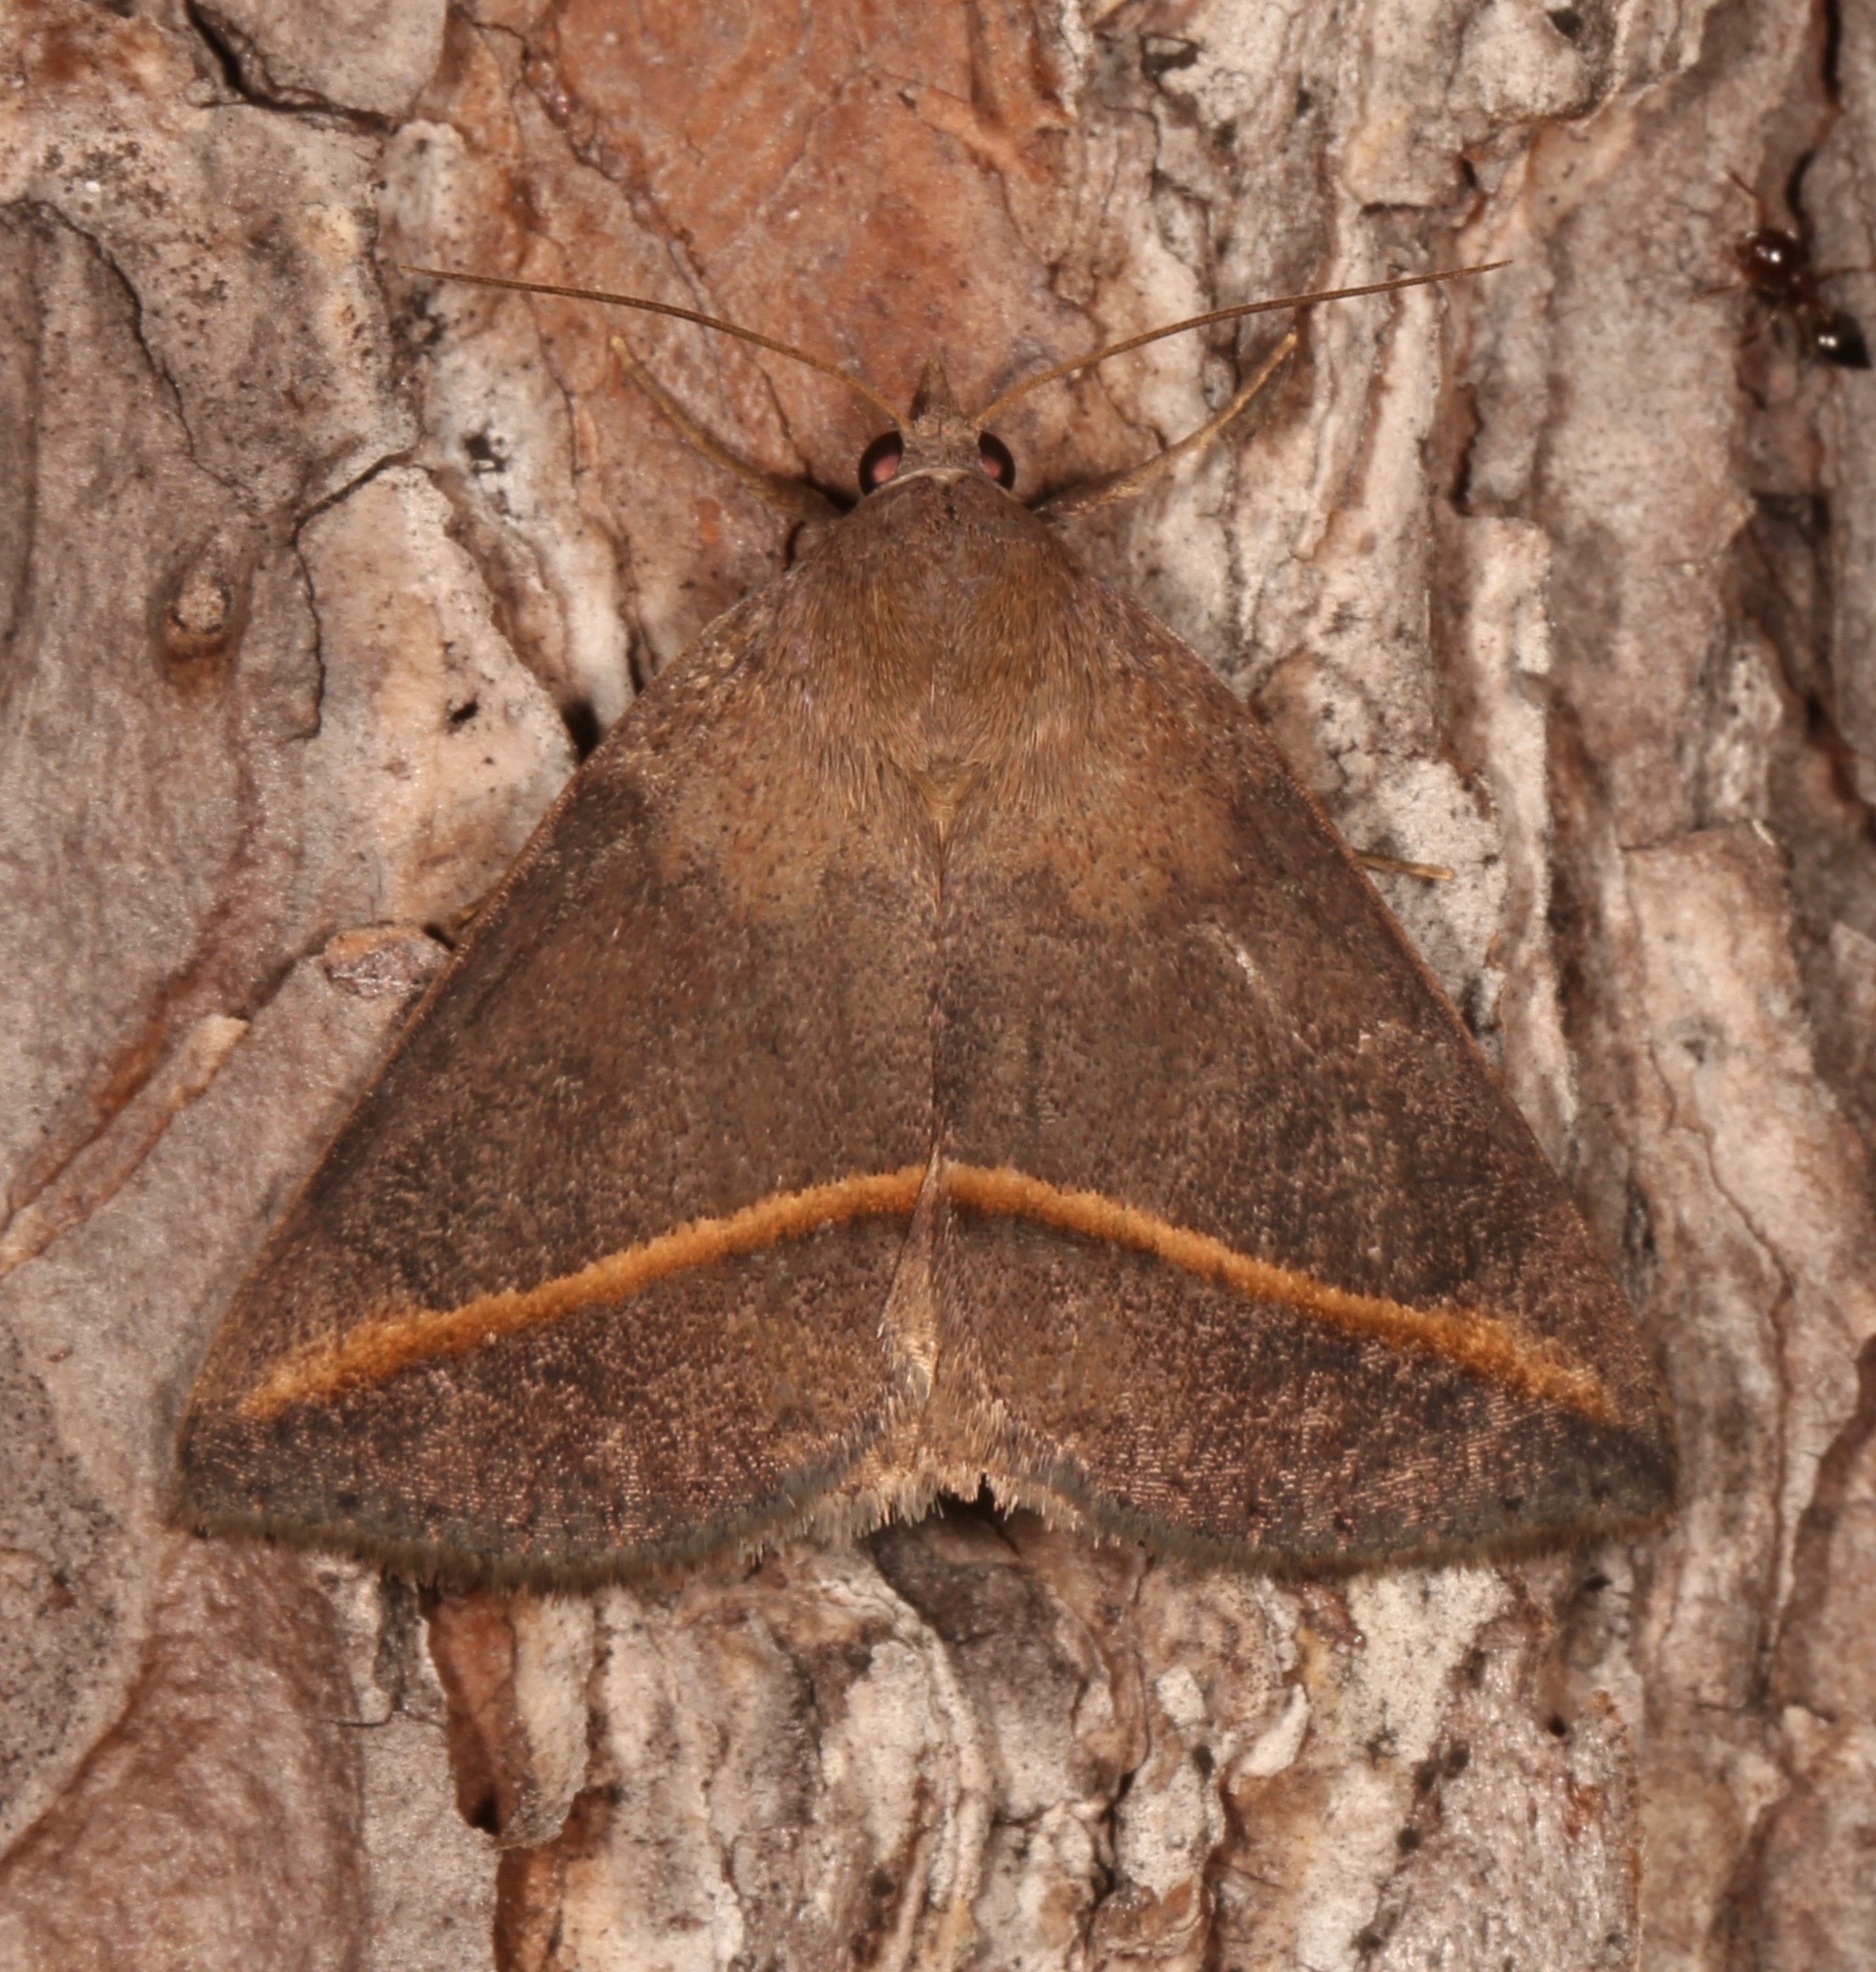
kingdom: Animalia
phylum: Arthropoda
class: Insecta
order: Lepidoptera
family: Erebidae
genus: Argyrostrotis
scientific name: Argyrostrotis flavistriaria
